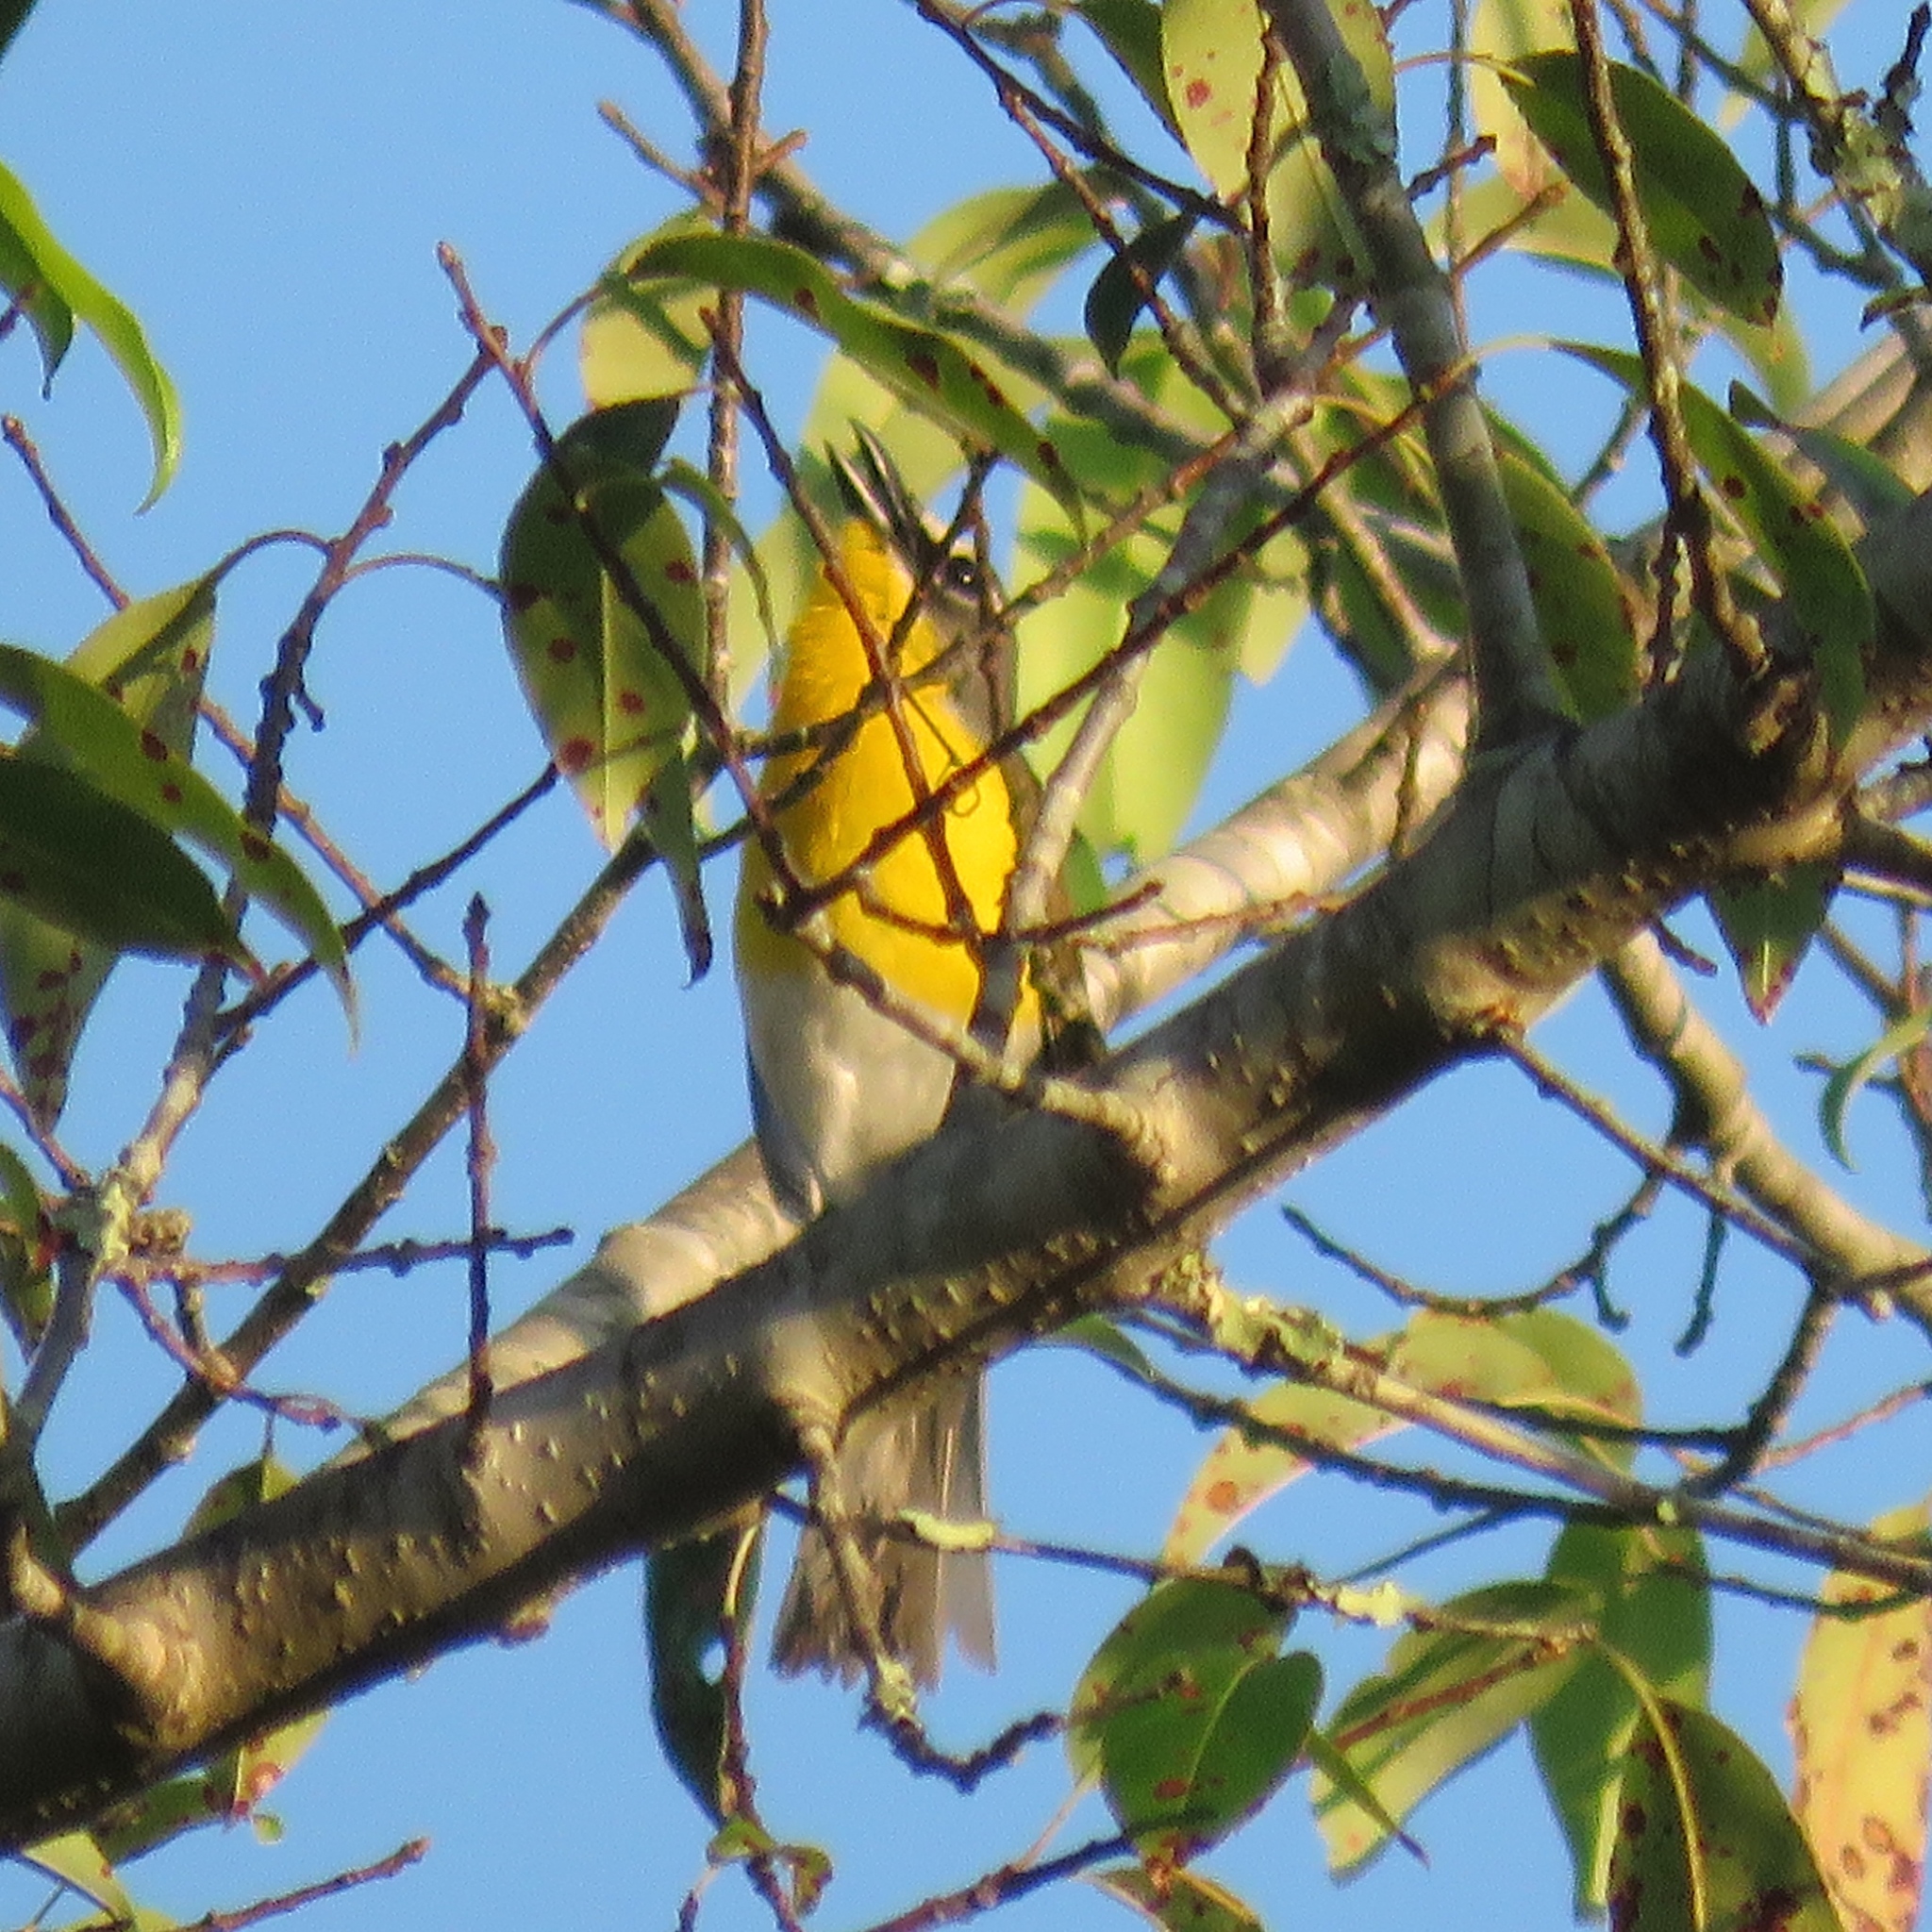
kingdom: Animalia
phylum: Chordata
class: Aves
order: Passeriformes
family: Parulidae
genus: Icteria
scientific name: Icteria virens
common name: Yellow-breasted chat
